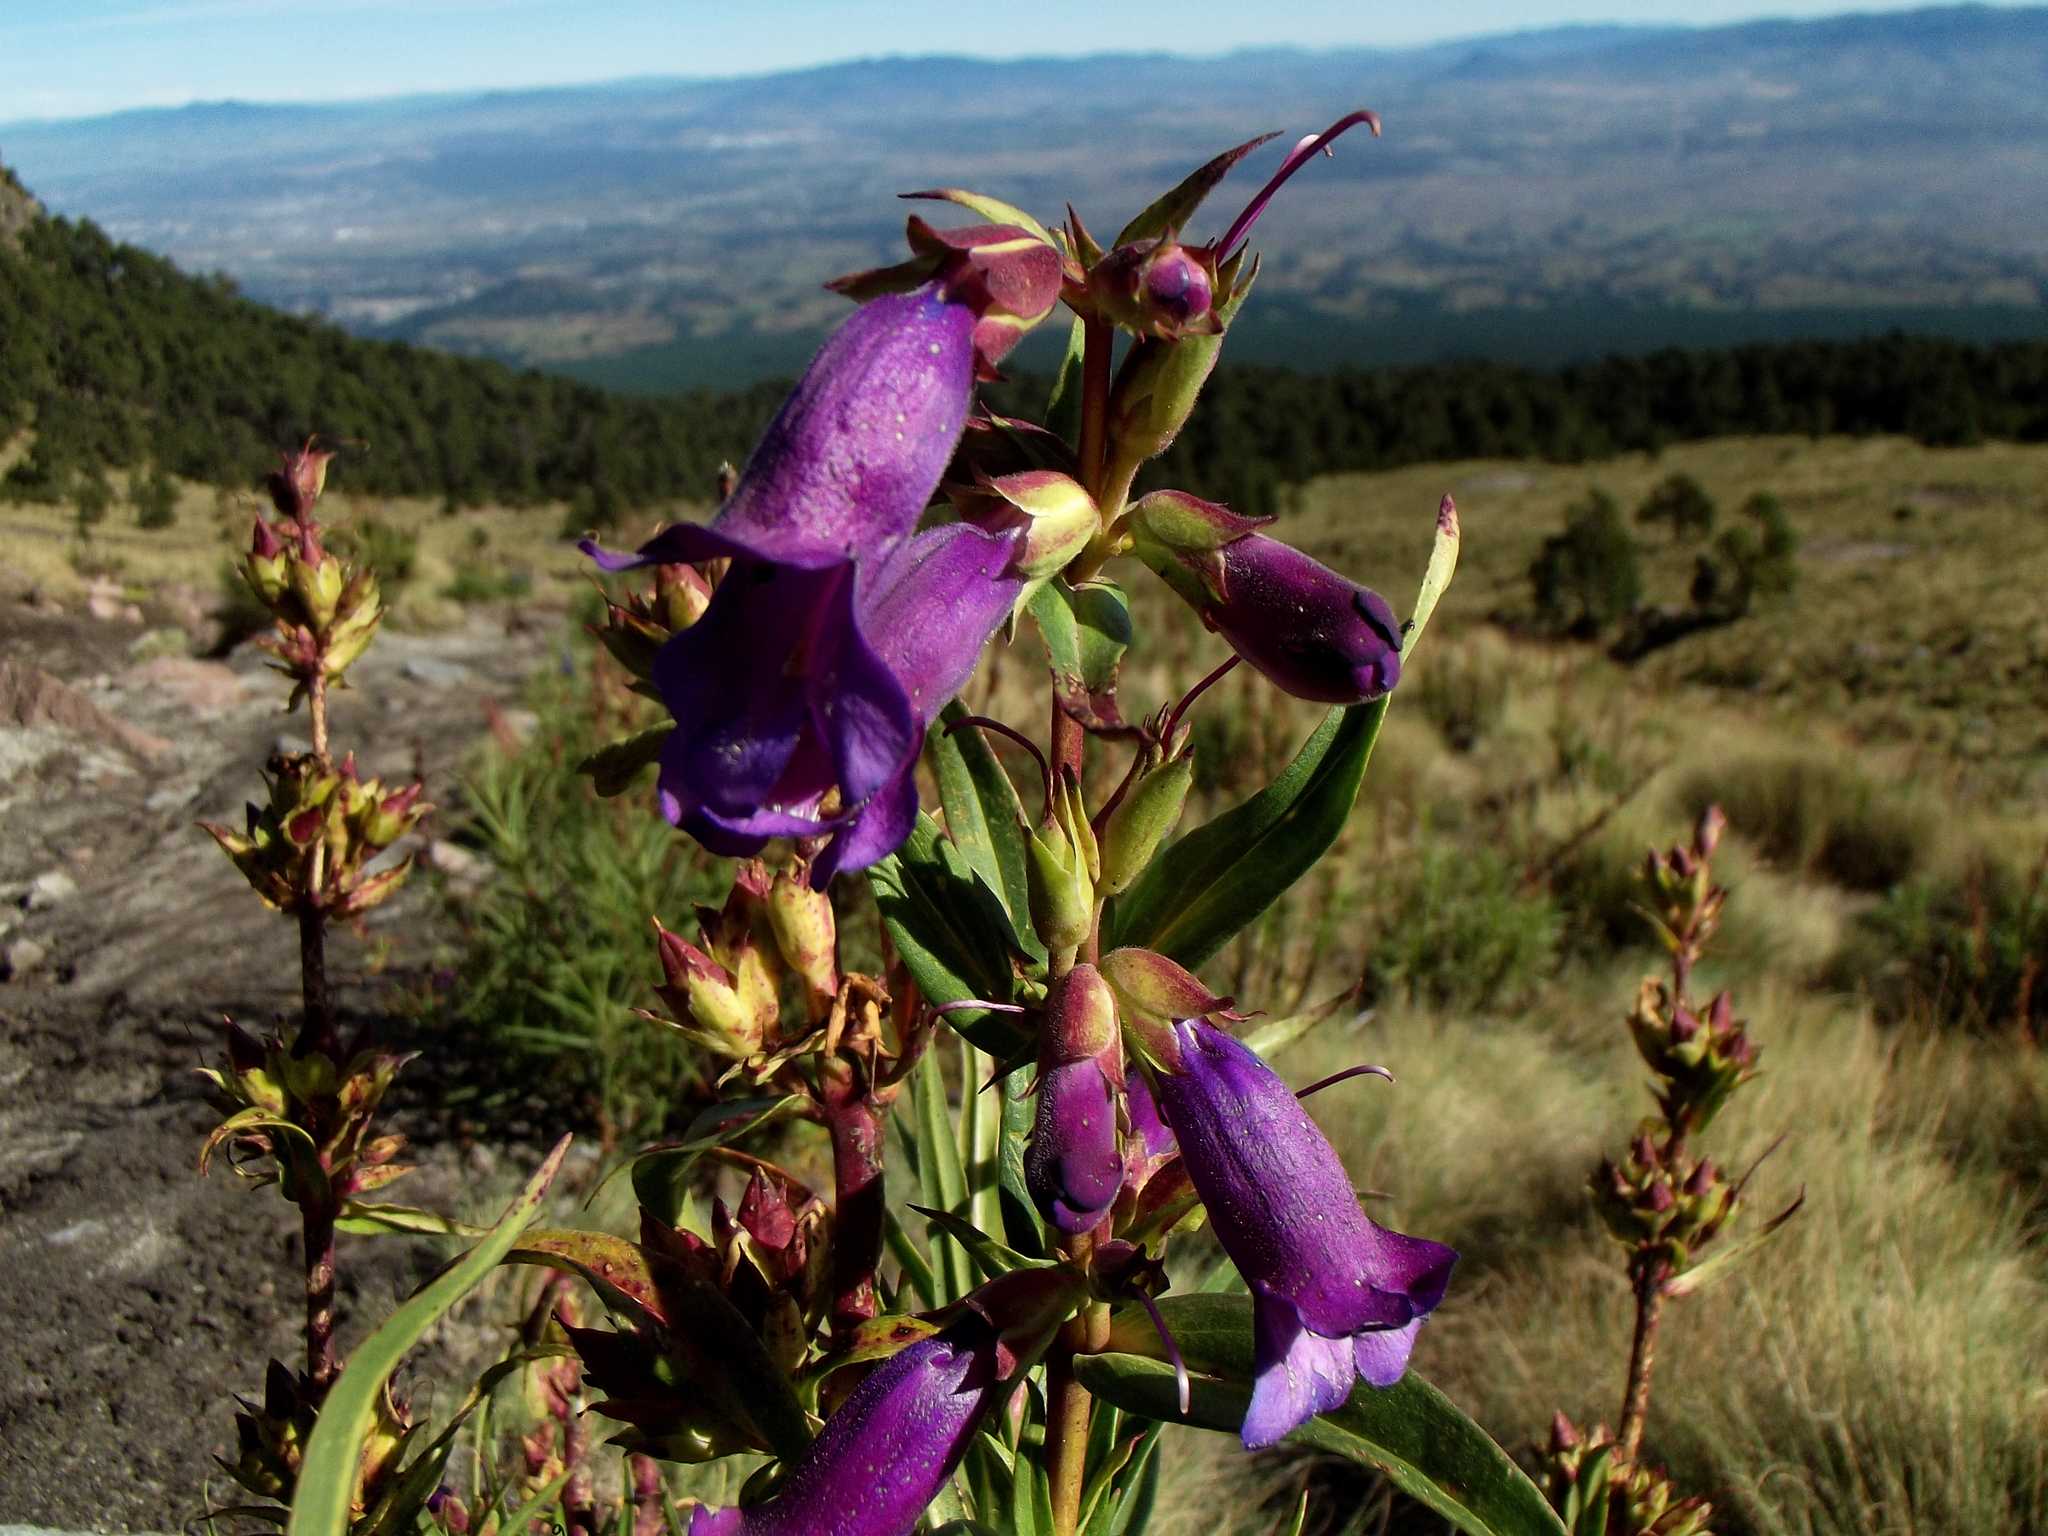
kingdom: Plantae
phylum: Tracheophyta
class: Magnoliopsida
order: Lamiales
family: Plantaginaceae
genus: Penstemon
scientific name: Penstemon gentianoides
